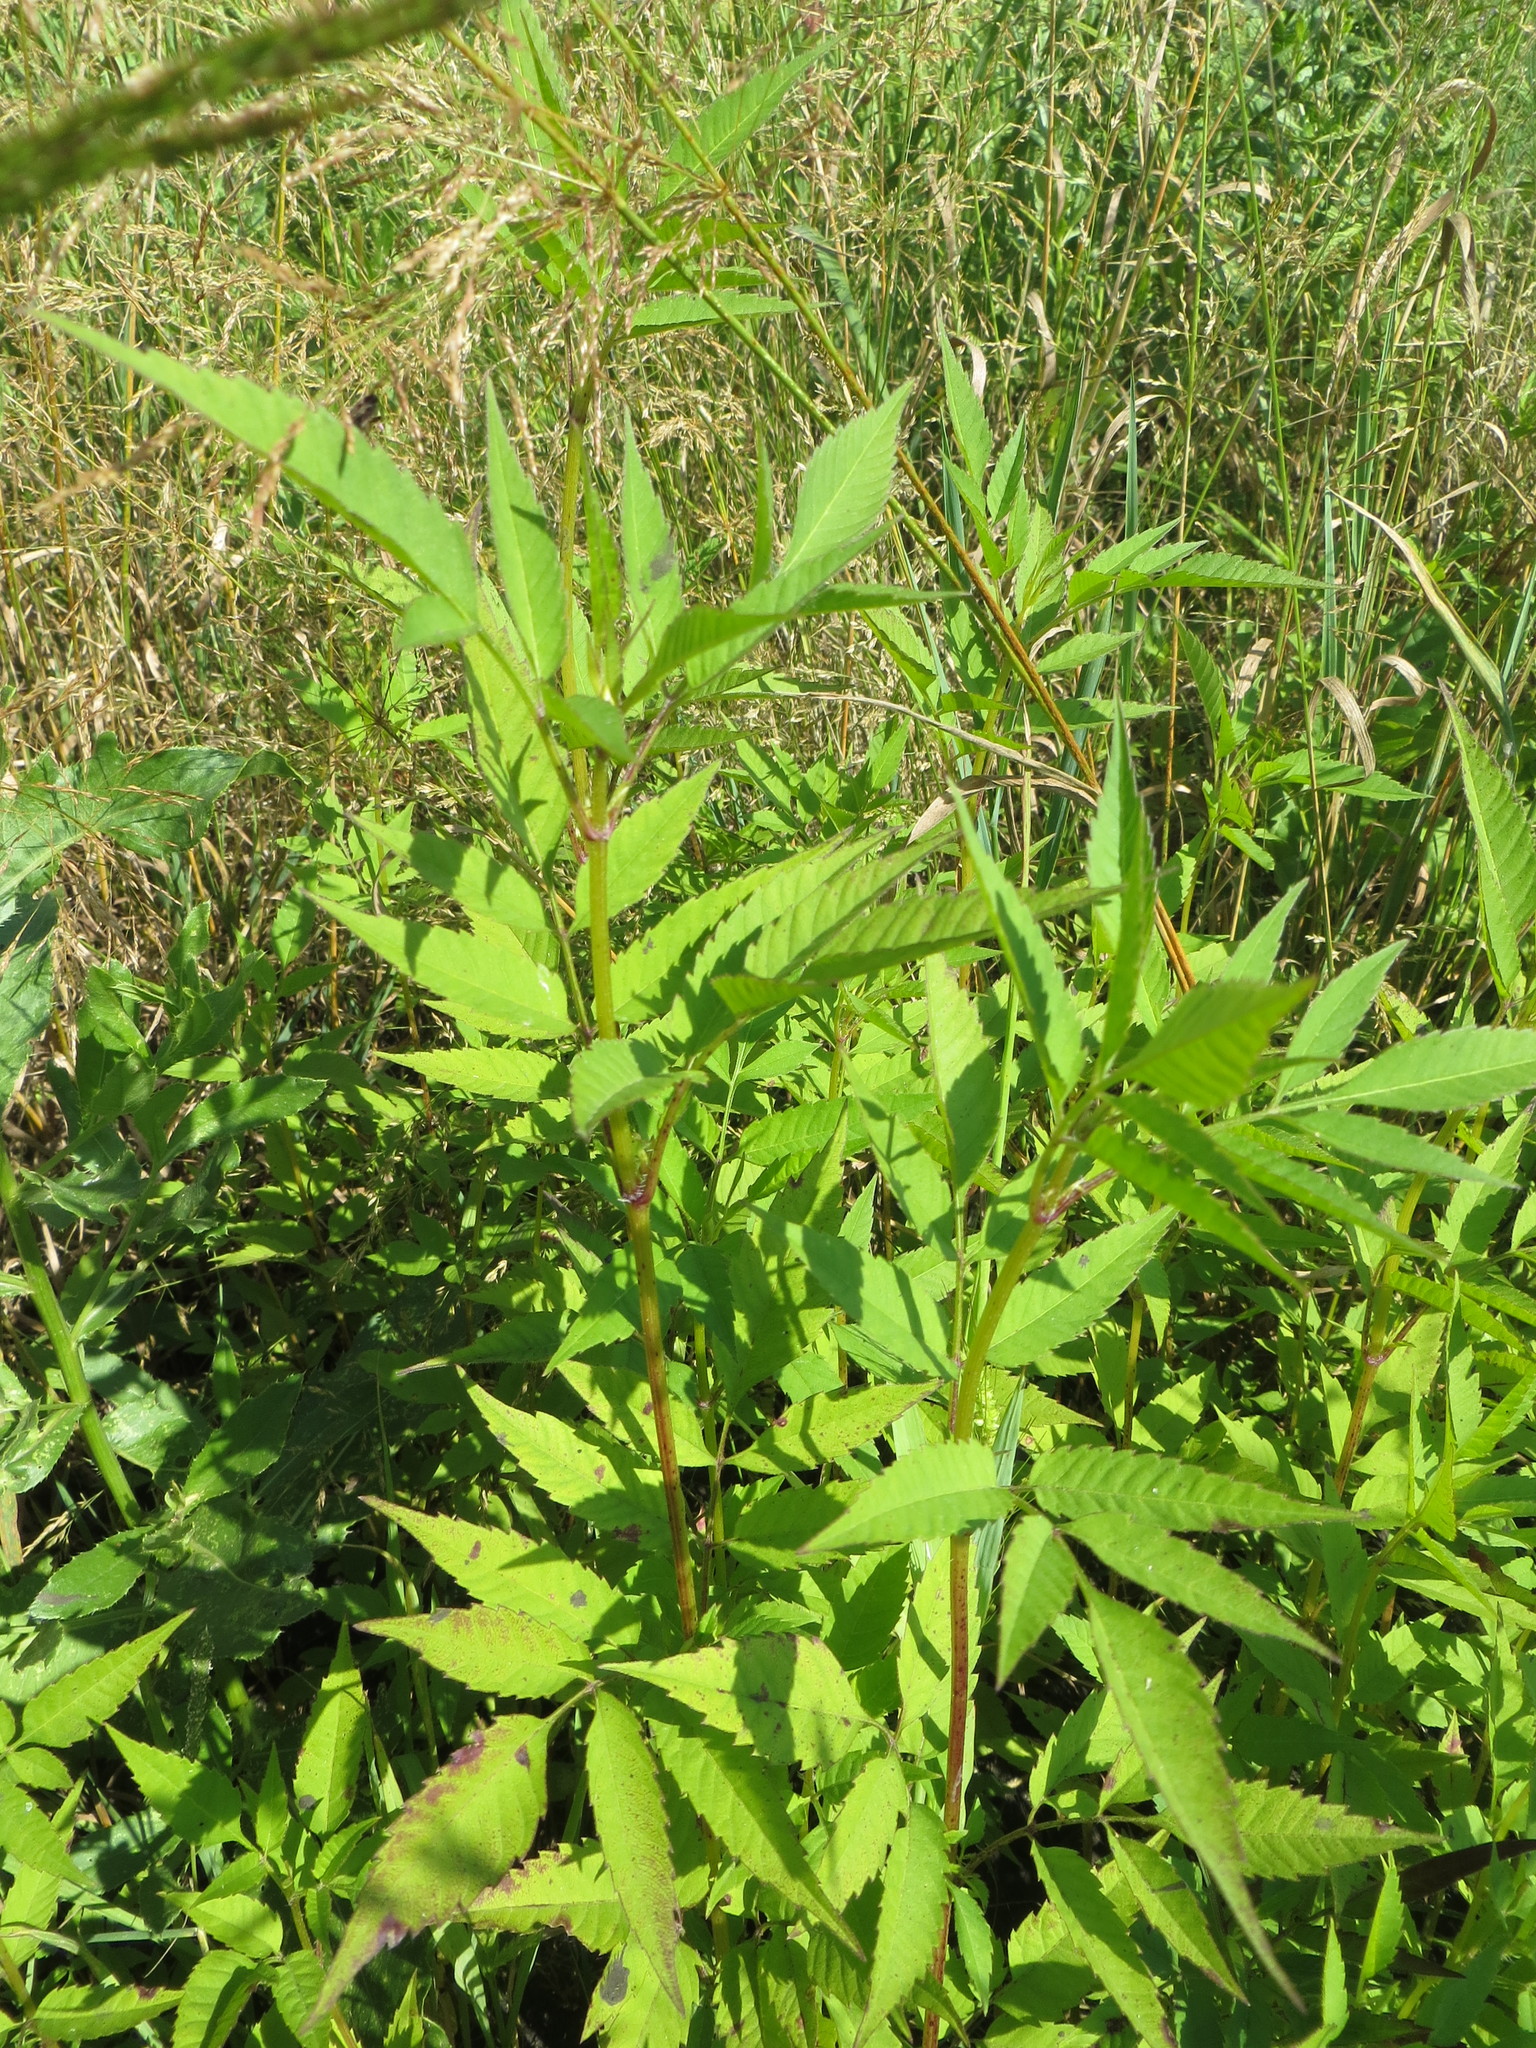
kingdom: Plantae
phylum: Tracheophyta
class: Magnoliopsida
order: Asterales
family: Asteraceae
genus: Bidens
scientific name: Bidens frondosa
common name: Beggarticks
